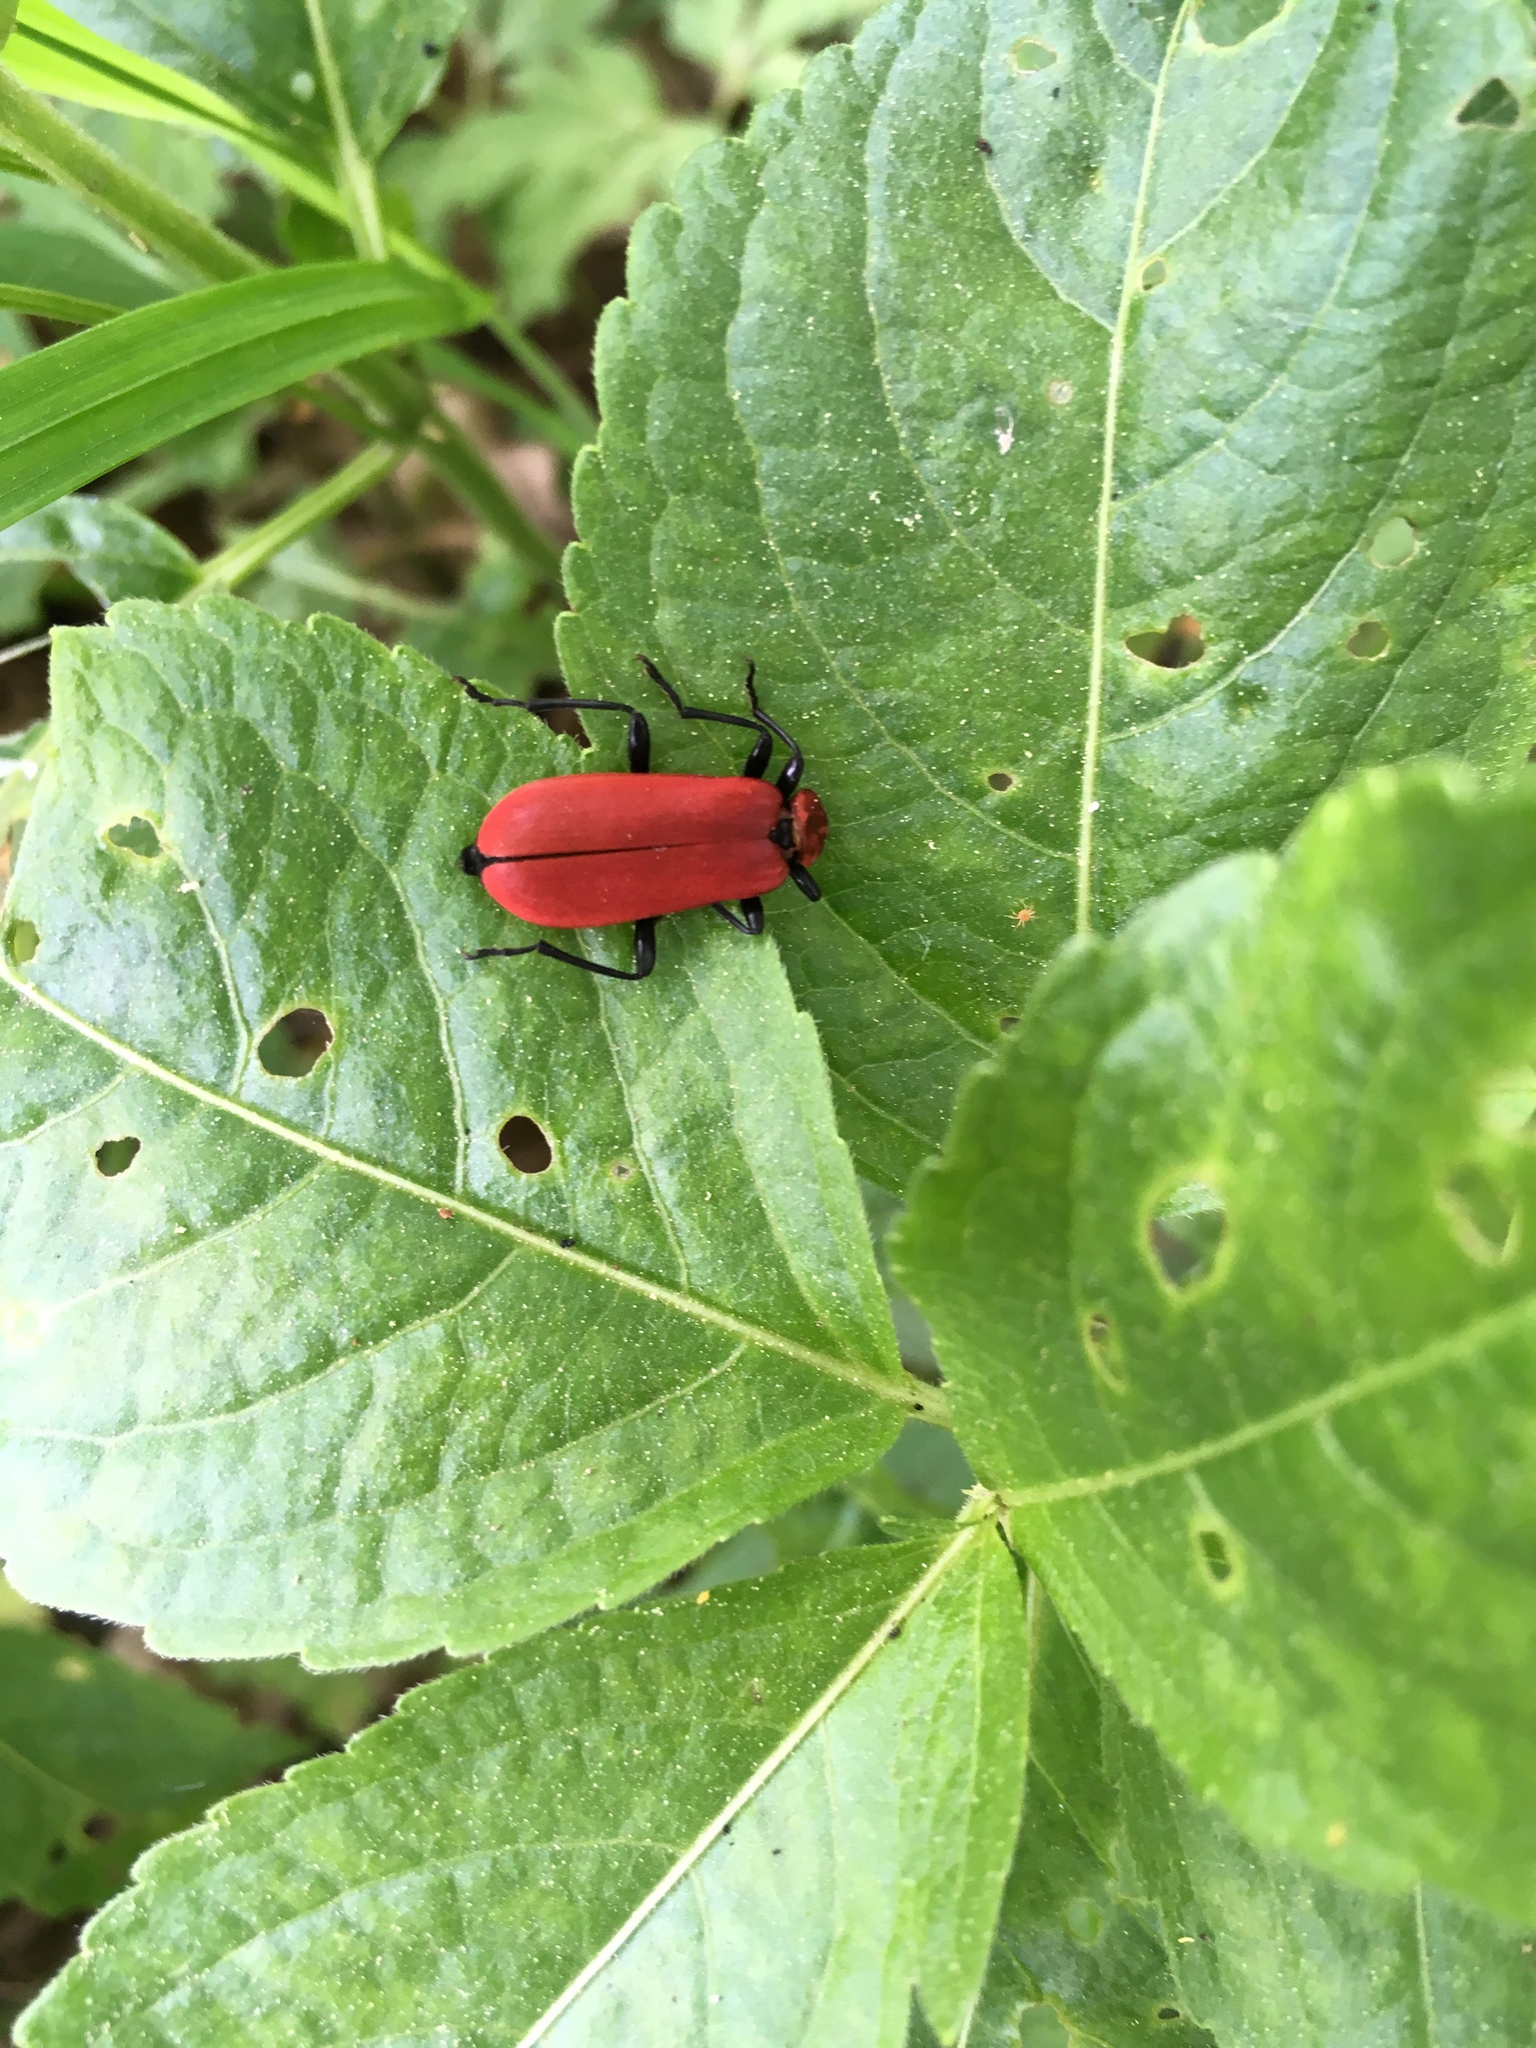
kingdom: Animalia
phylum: Arthropoda
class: Insecta
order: Coleoptera
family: Pyrochroidae
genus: Pyrochroa
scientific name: Pyrochroa coccinea
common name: Black-headed cardinal beetle
